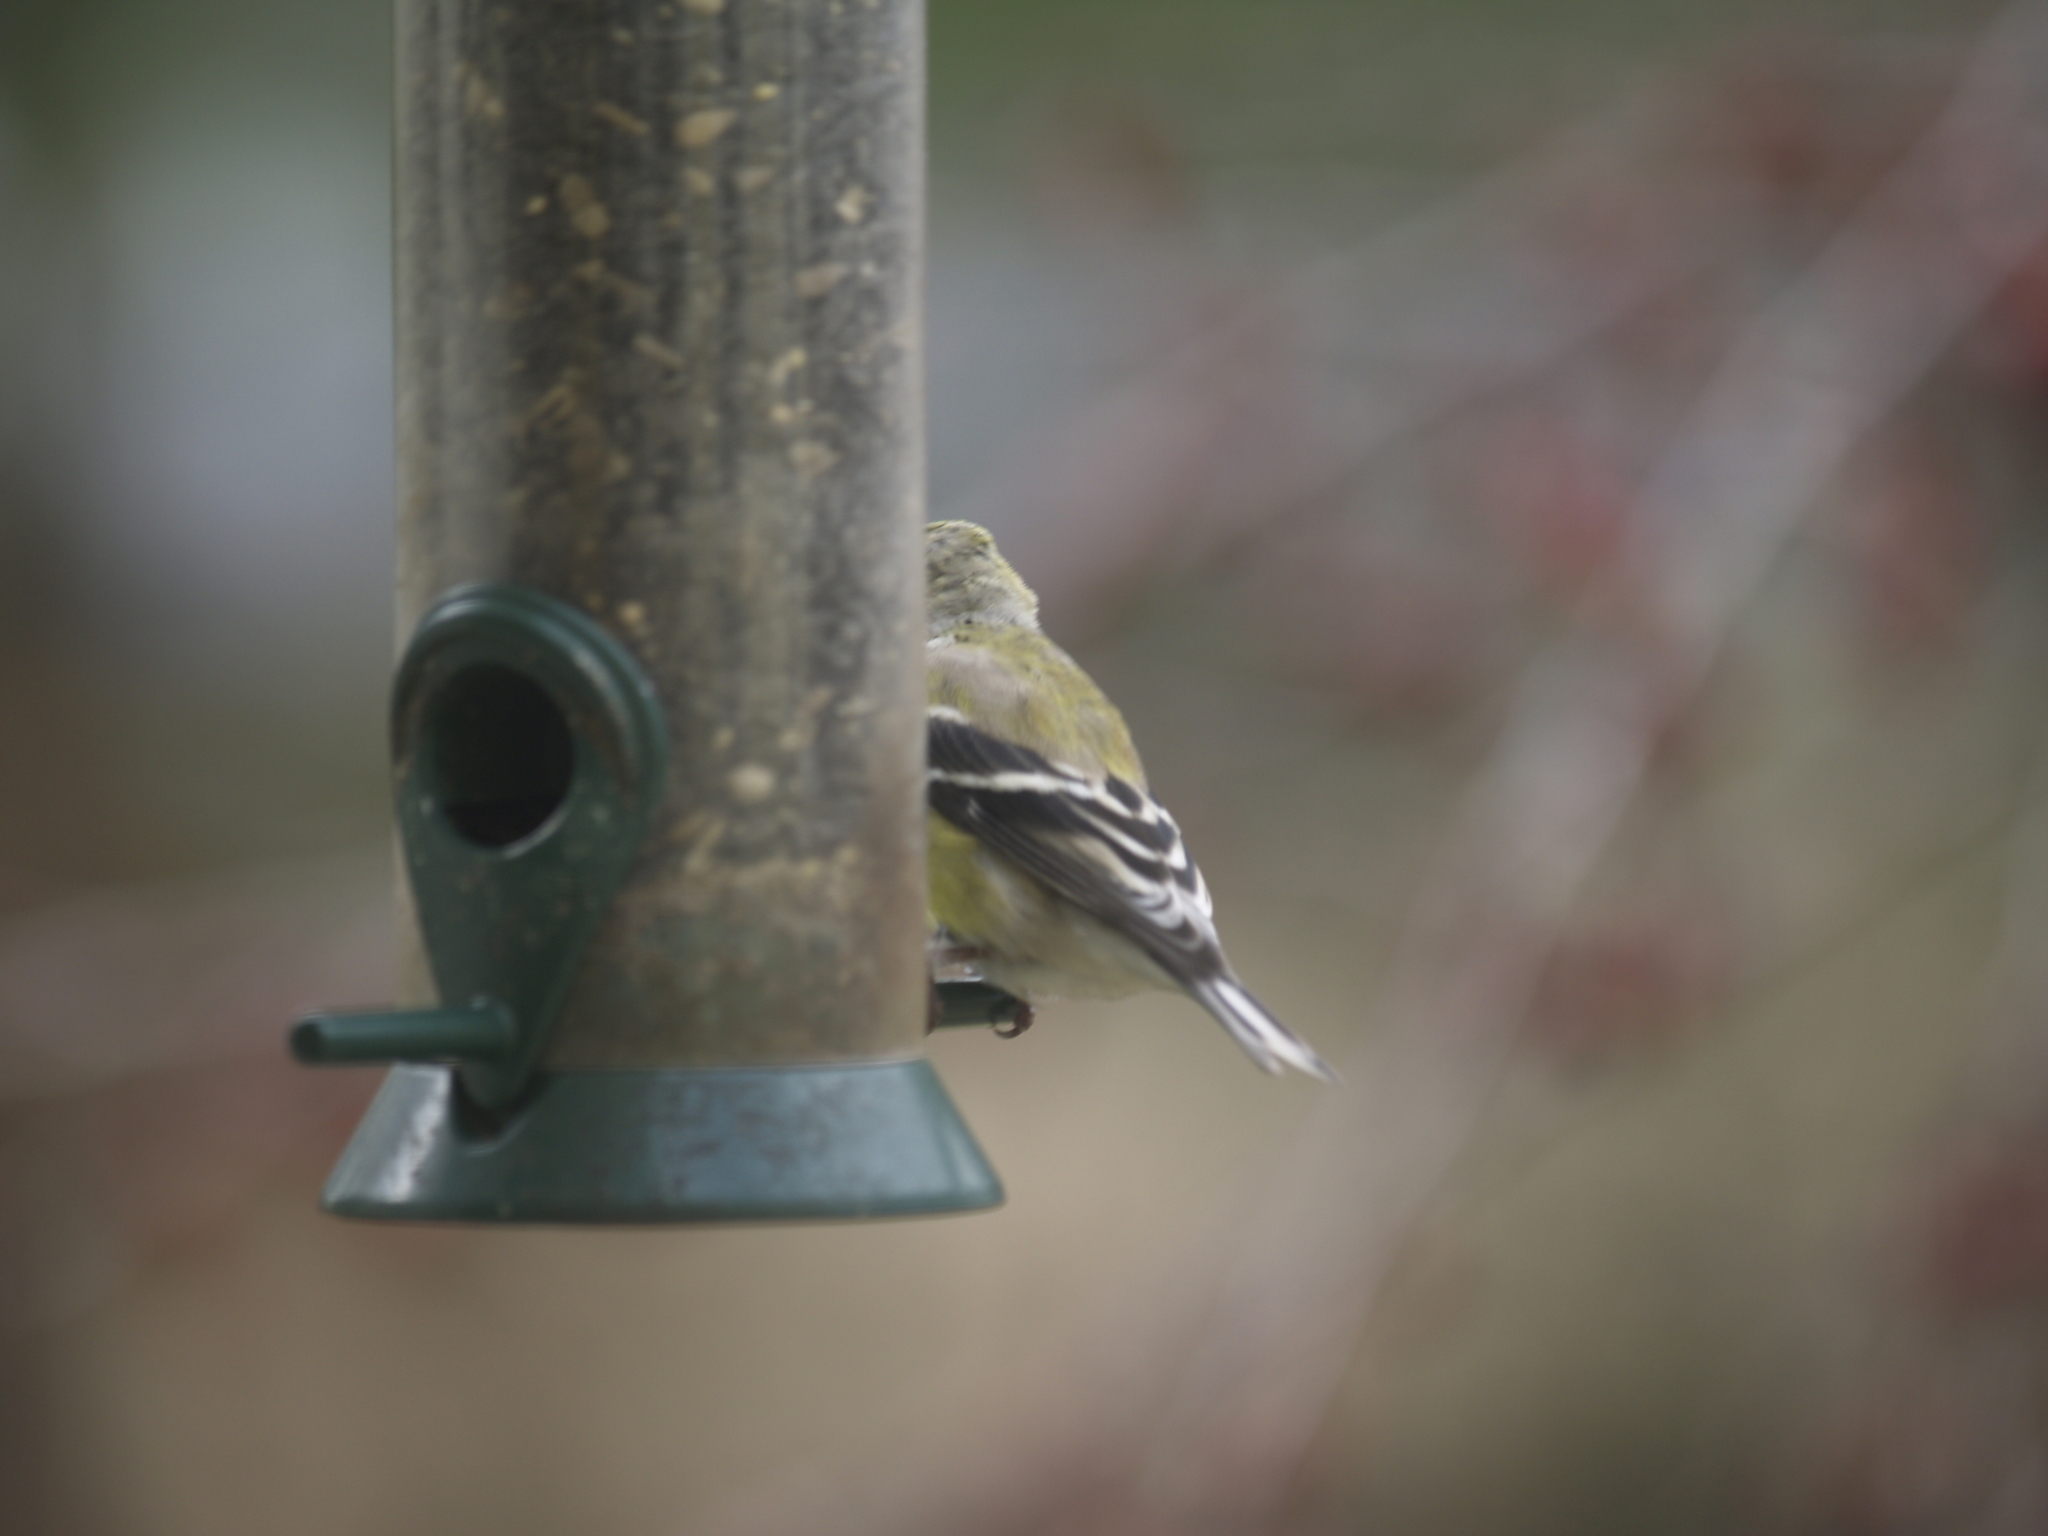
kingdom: Animalia
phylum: Chordata
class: Aves
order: Passeriformes
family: Fringillidae
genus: Spinus
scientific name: Spinus tristis
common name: American goldfinch
